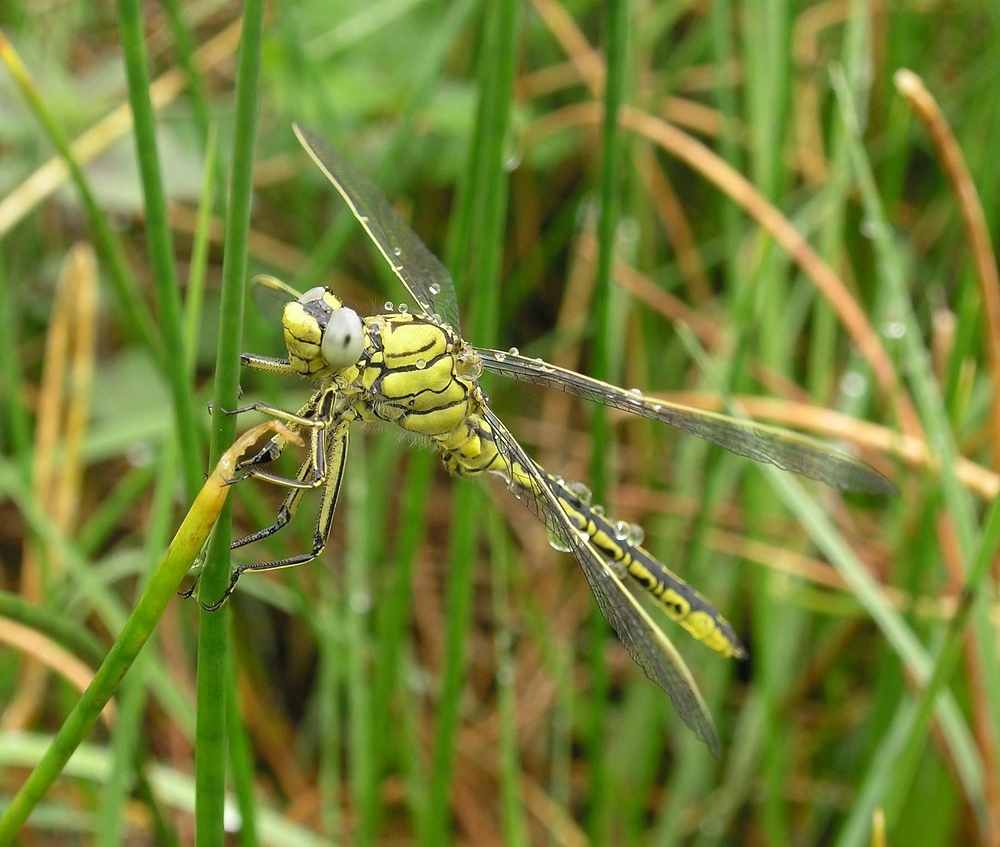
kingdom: Animalia
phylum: Arthropoda
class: Insecta
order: Odonata
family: Gomphidae
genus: Gomphus
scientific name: Gomphus pulchellus
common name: Western clubtail
